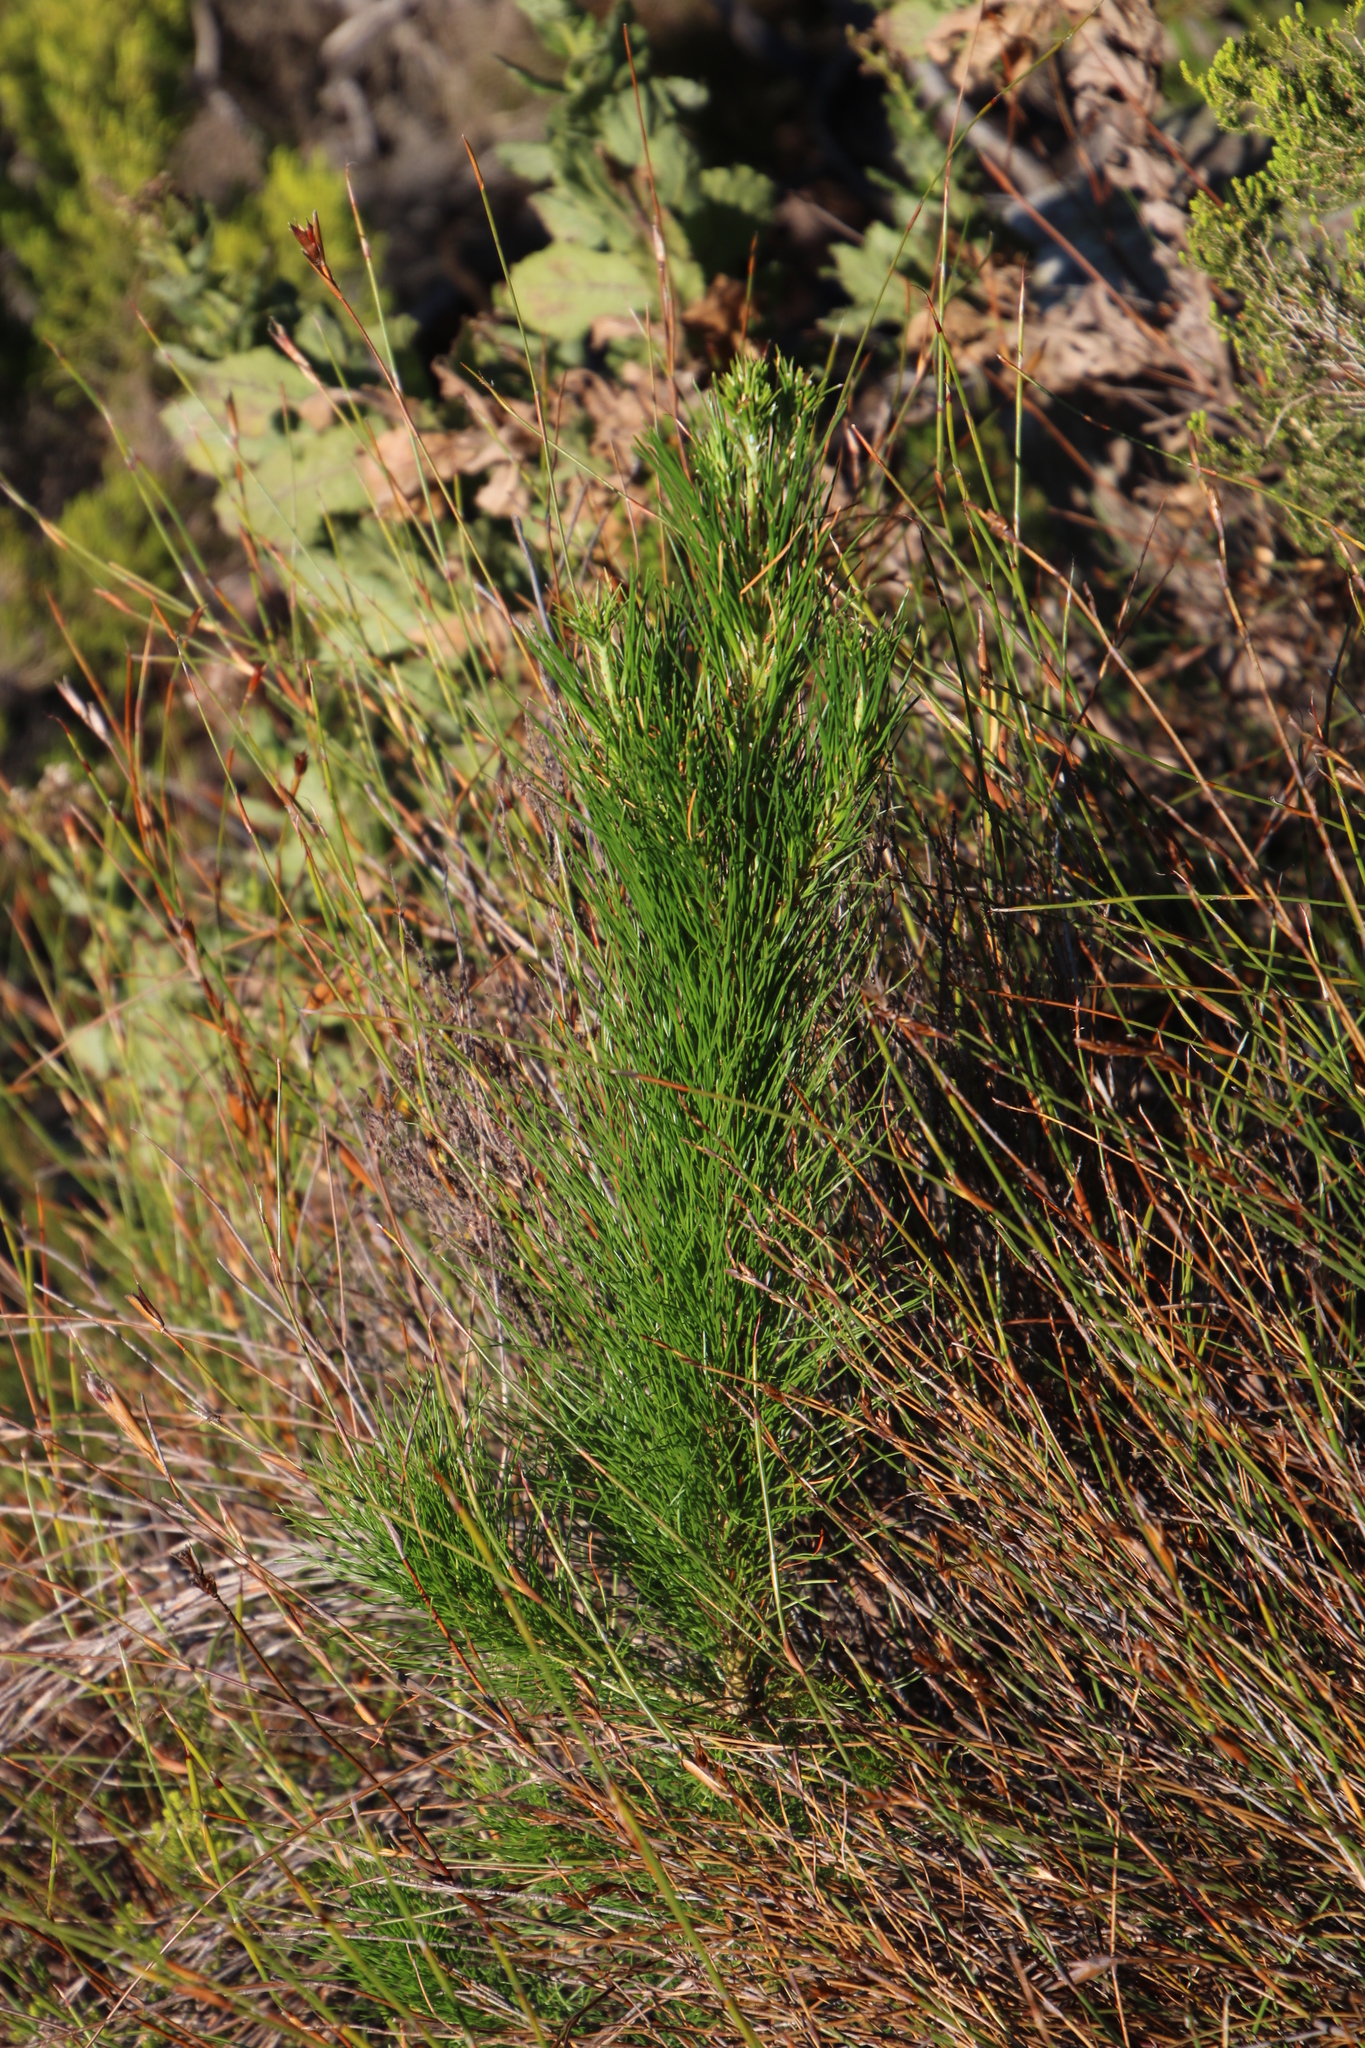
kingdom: Plantae
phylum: Tracheophyta
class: Pinopsida
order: Pinales
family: Pinaceae
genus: Pinus
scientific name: Pinus radiata
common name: Monterey pine
